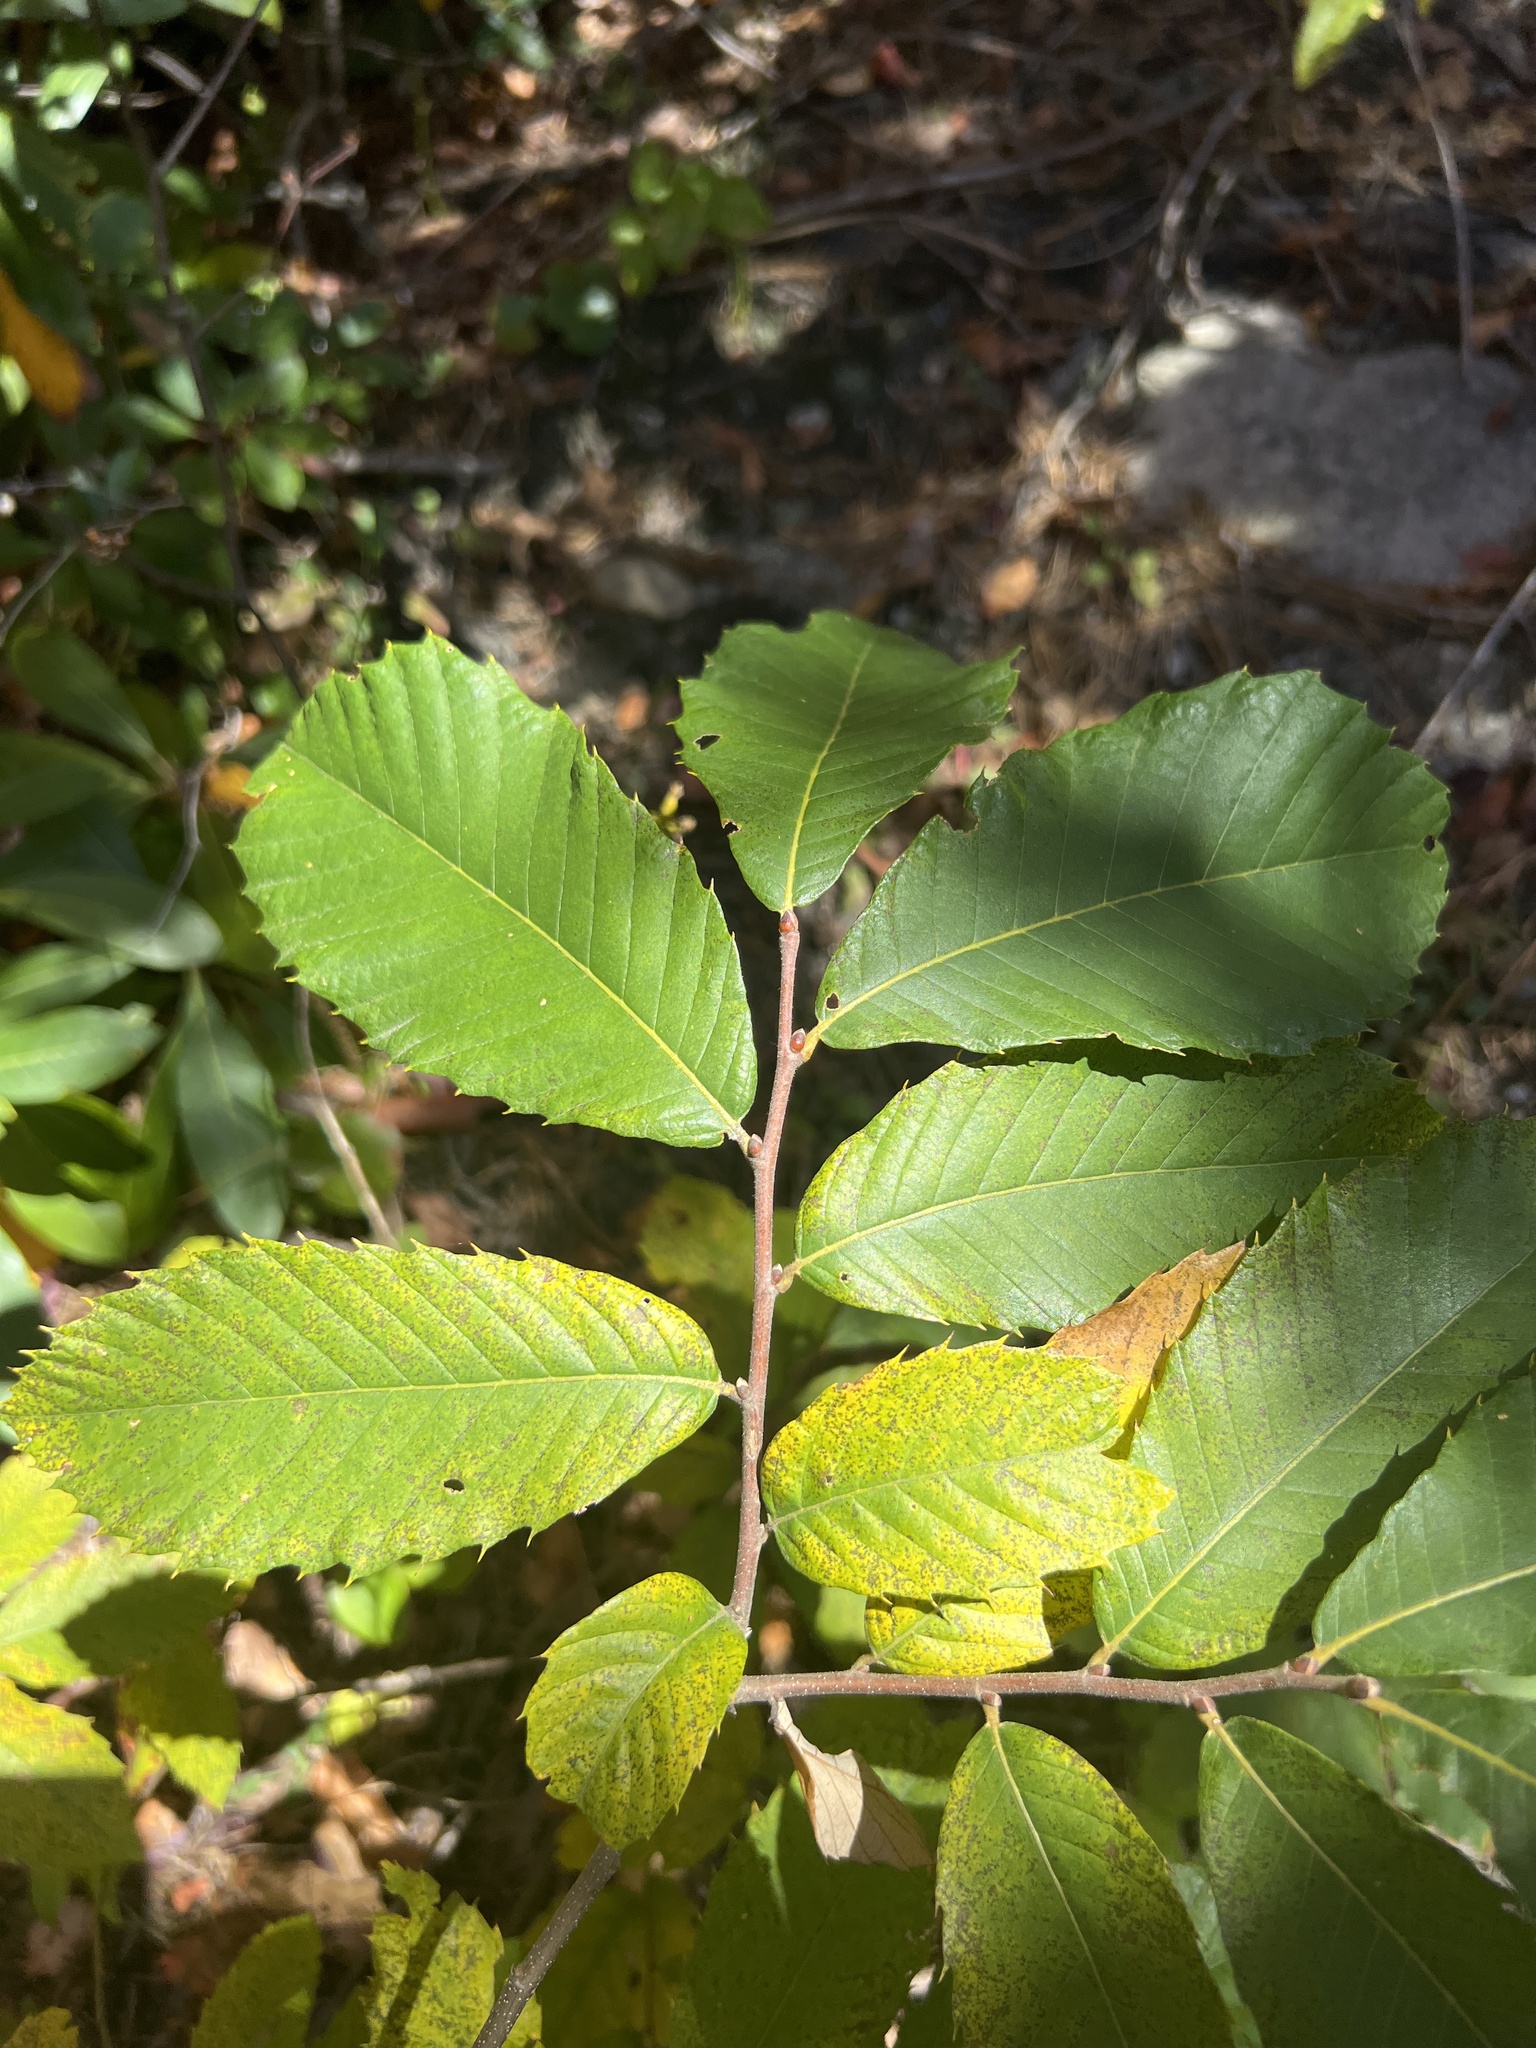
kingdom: Plantae
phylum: Tracheophyta
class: Magnoliopsida
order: Fagales
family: Fagaceae
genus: Castanea
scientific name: Castanea pumila
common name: Chinkapin
